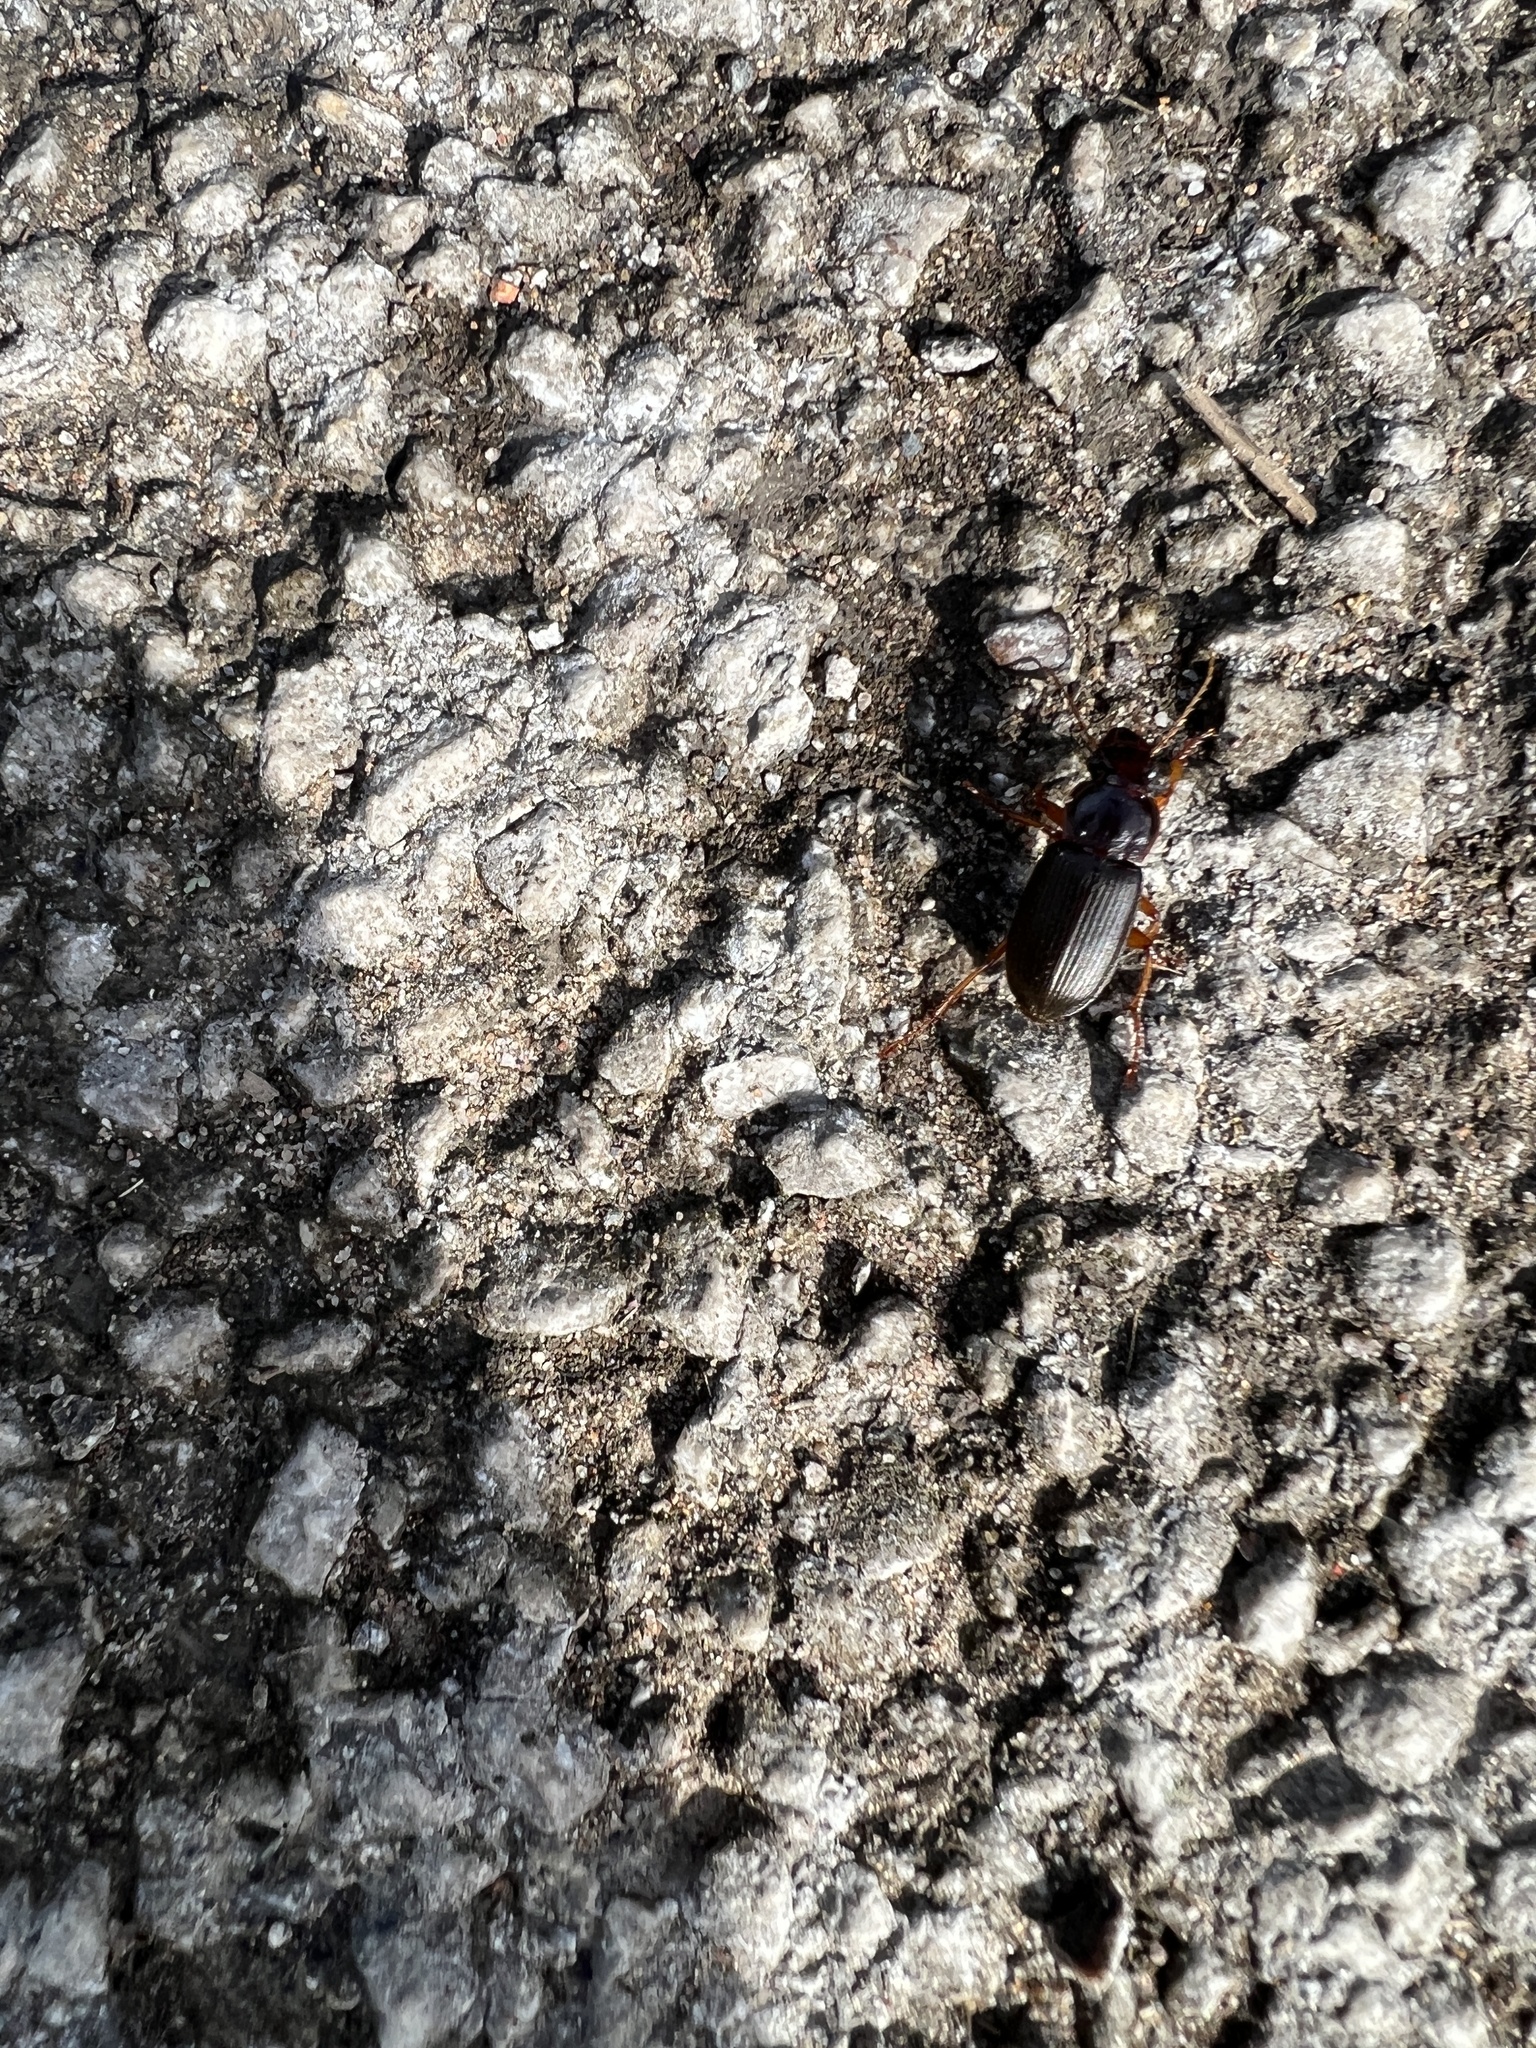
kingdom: Animalia
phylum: Arthropoda
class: Insecta
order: Coleoptera
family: Carabidae
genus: Harpalus
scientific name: Harpalus rufipes
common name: Strawberry harp ground beetle
